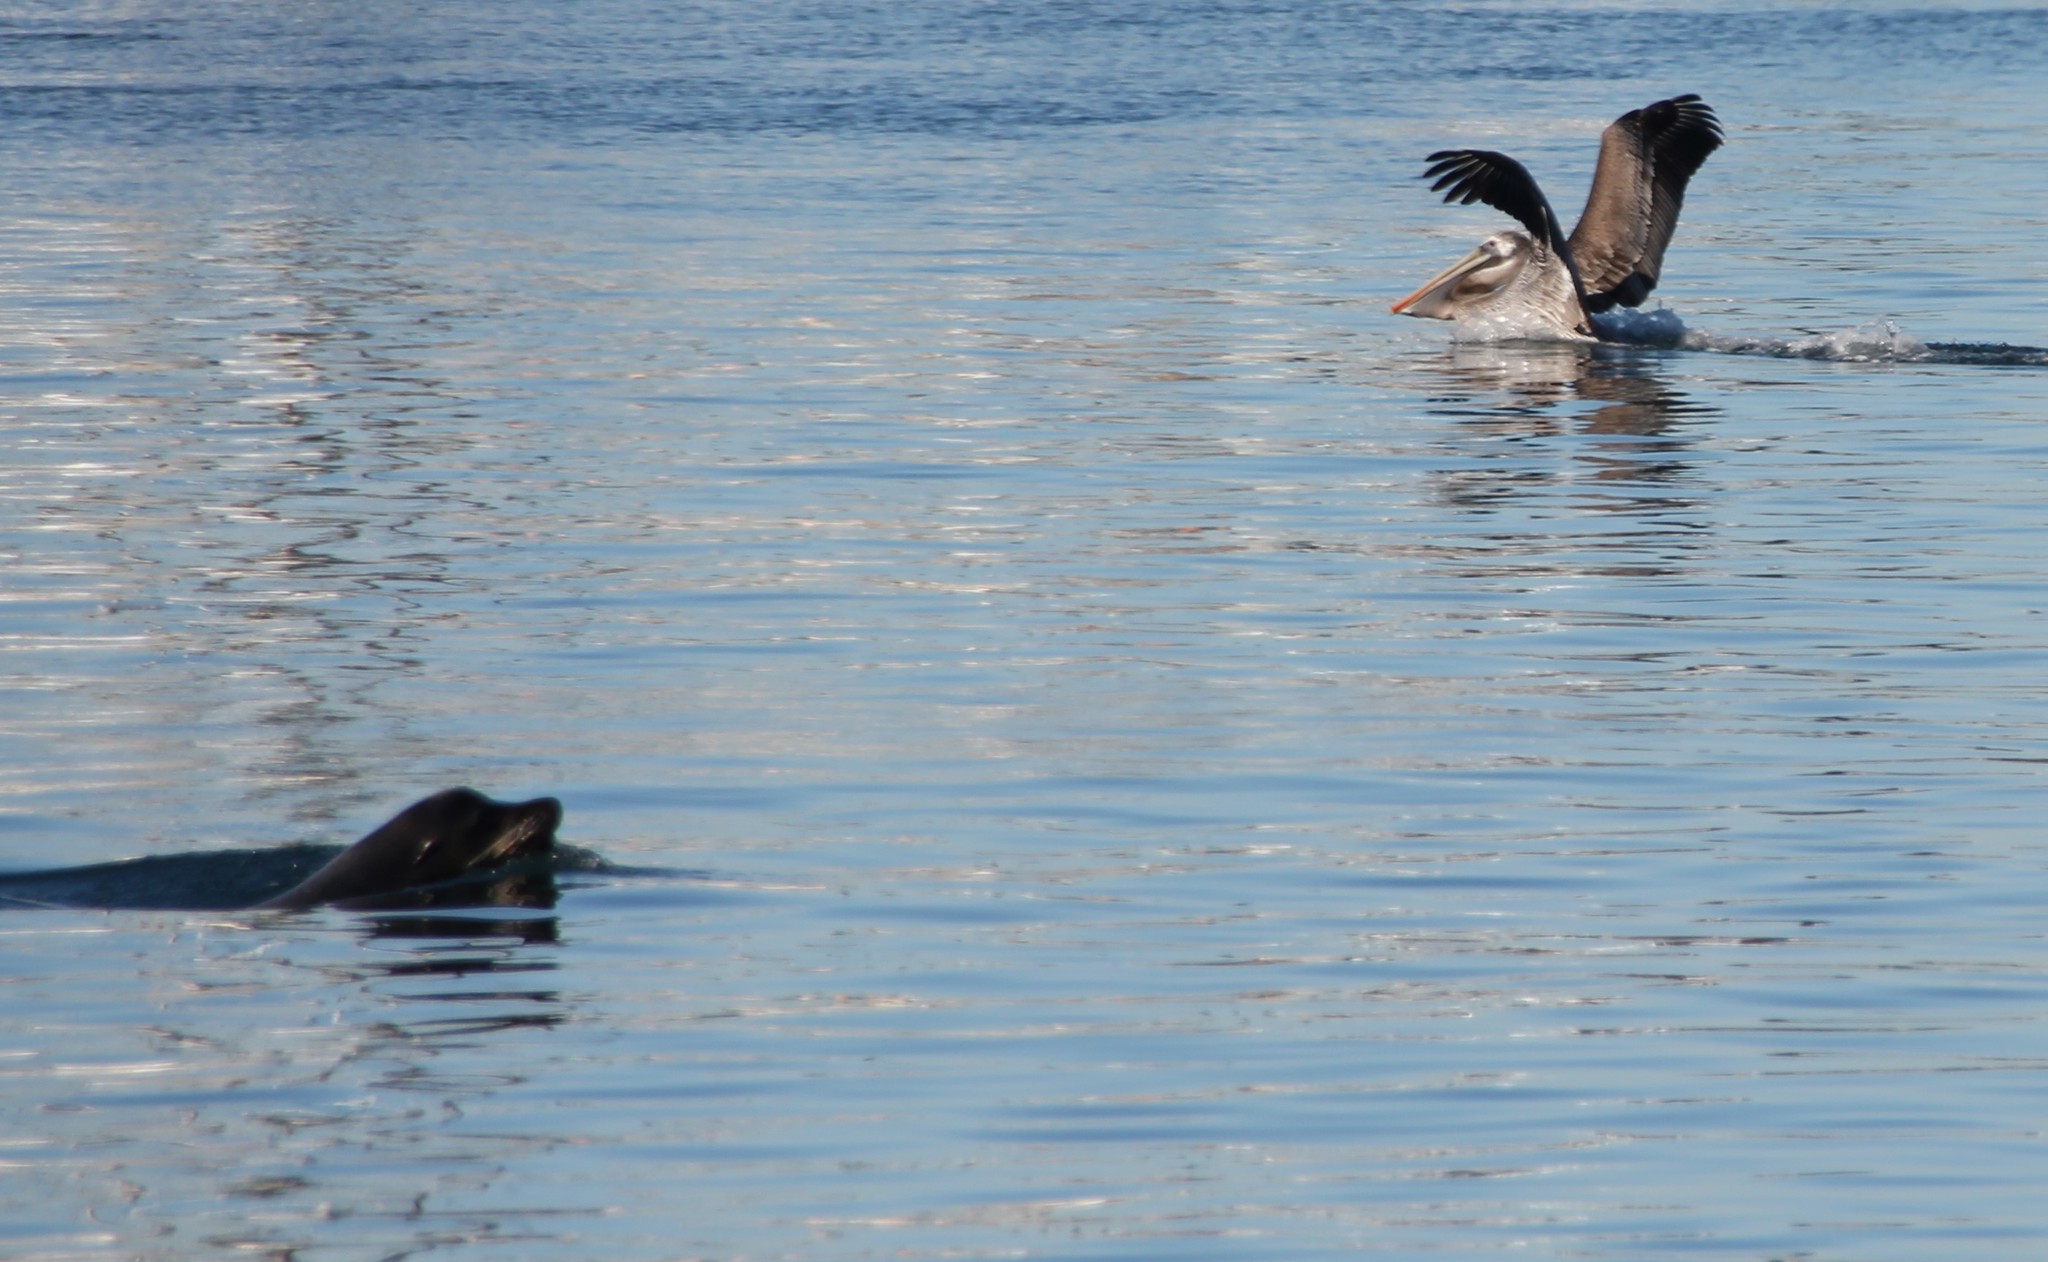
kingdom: Animalia
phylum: Chordata
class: Mammalia
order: Carnivora
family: Otariidae
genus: Zalophus
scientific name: Zalophus californianus
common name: California sea lion
